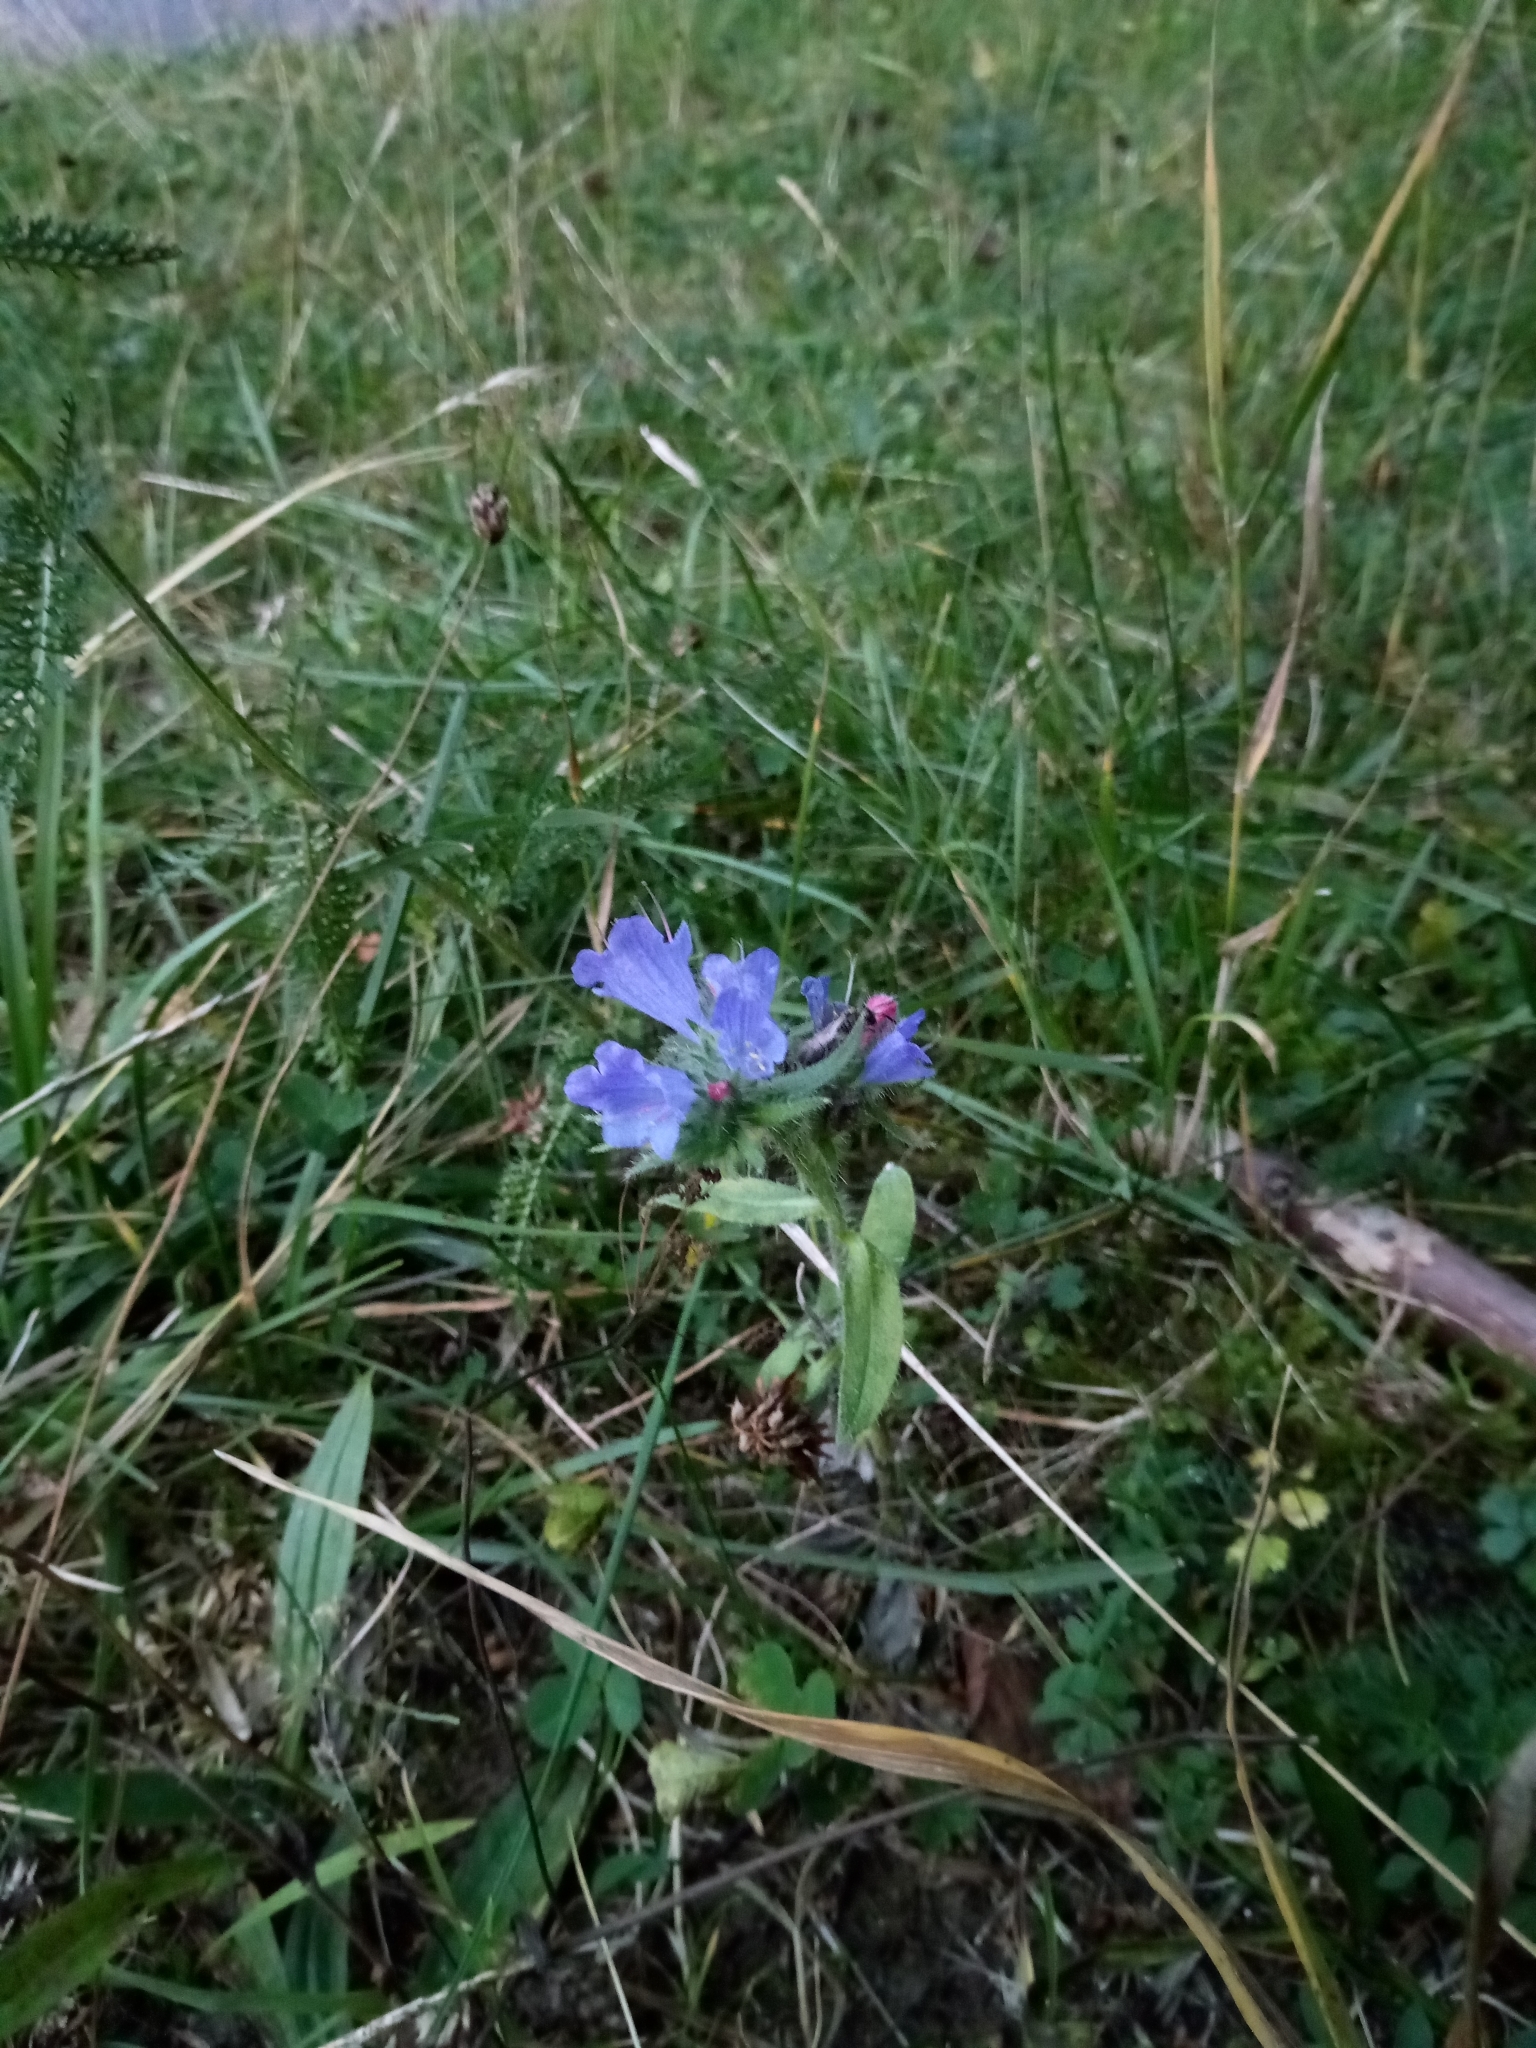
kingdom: Plantae
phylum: Tracheophyta
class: Magnoliopsida
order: Boraginales
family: Boraginaceae
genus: Echium
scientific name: Echium vulgare
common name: Common viper's bugloss
